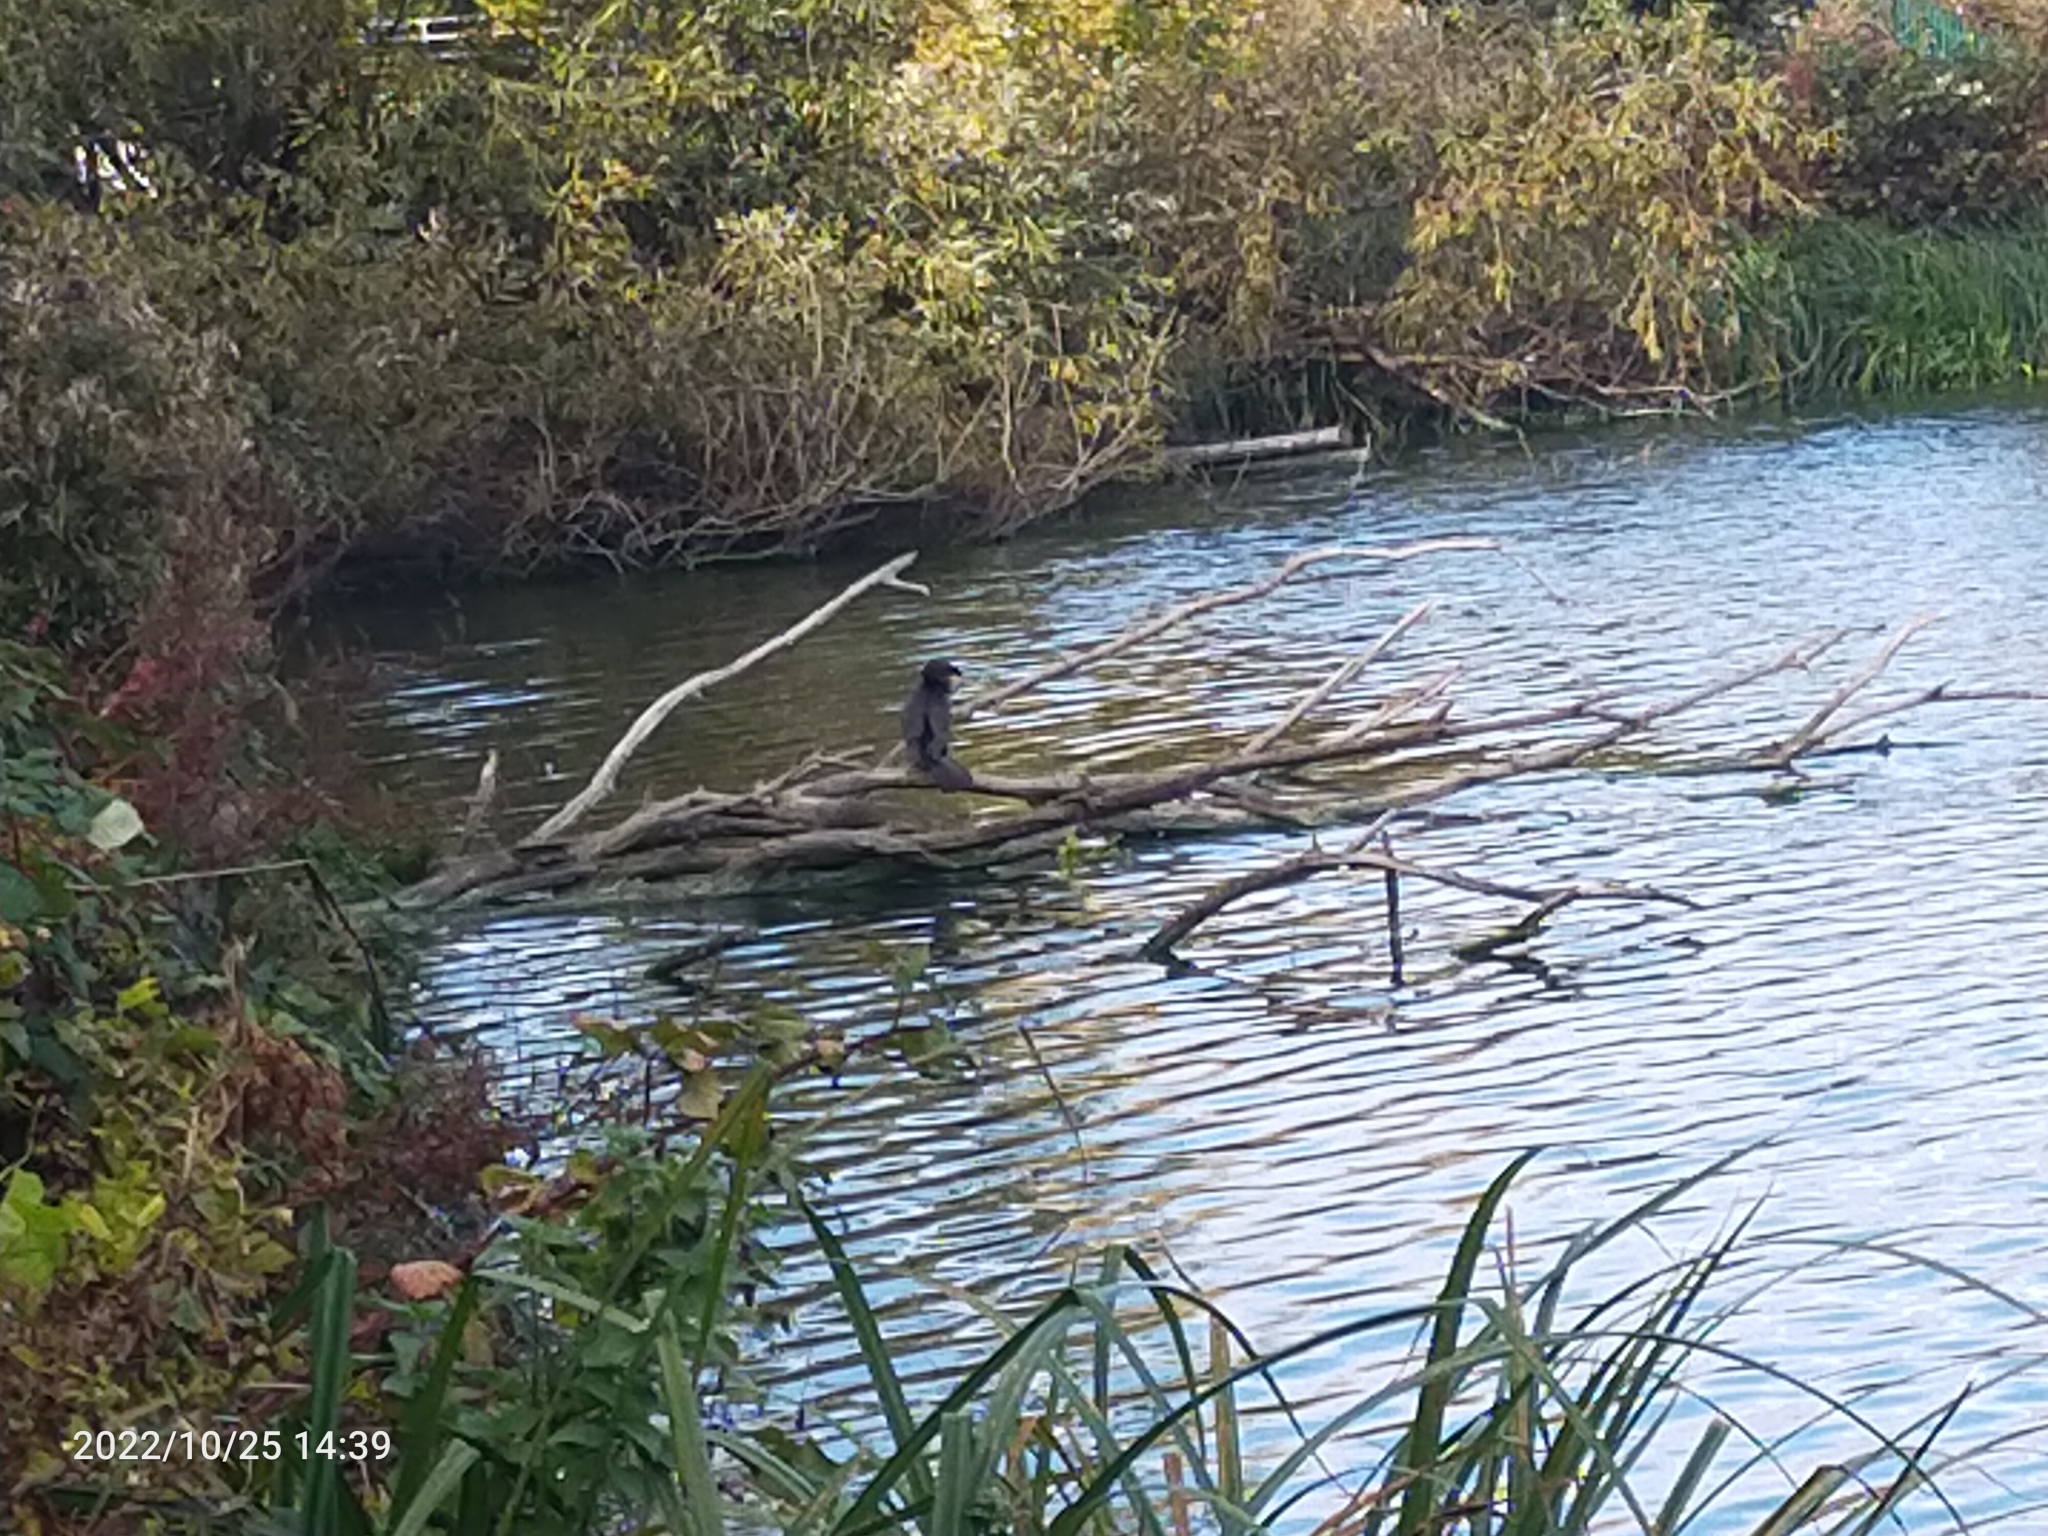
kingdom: Animalia
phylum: Chordata
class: Aves
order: Suliformes
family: Phalacrocoracidae
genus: Phalacrocorax
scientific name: Phalacrocorax carbo
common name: Great cormorant
